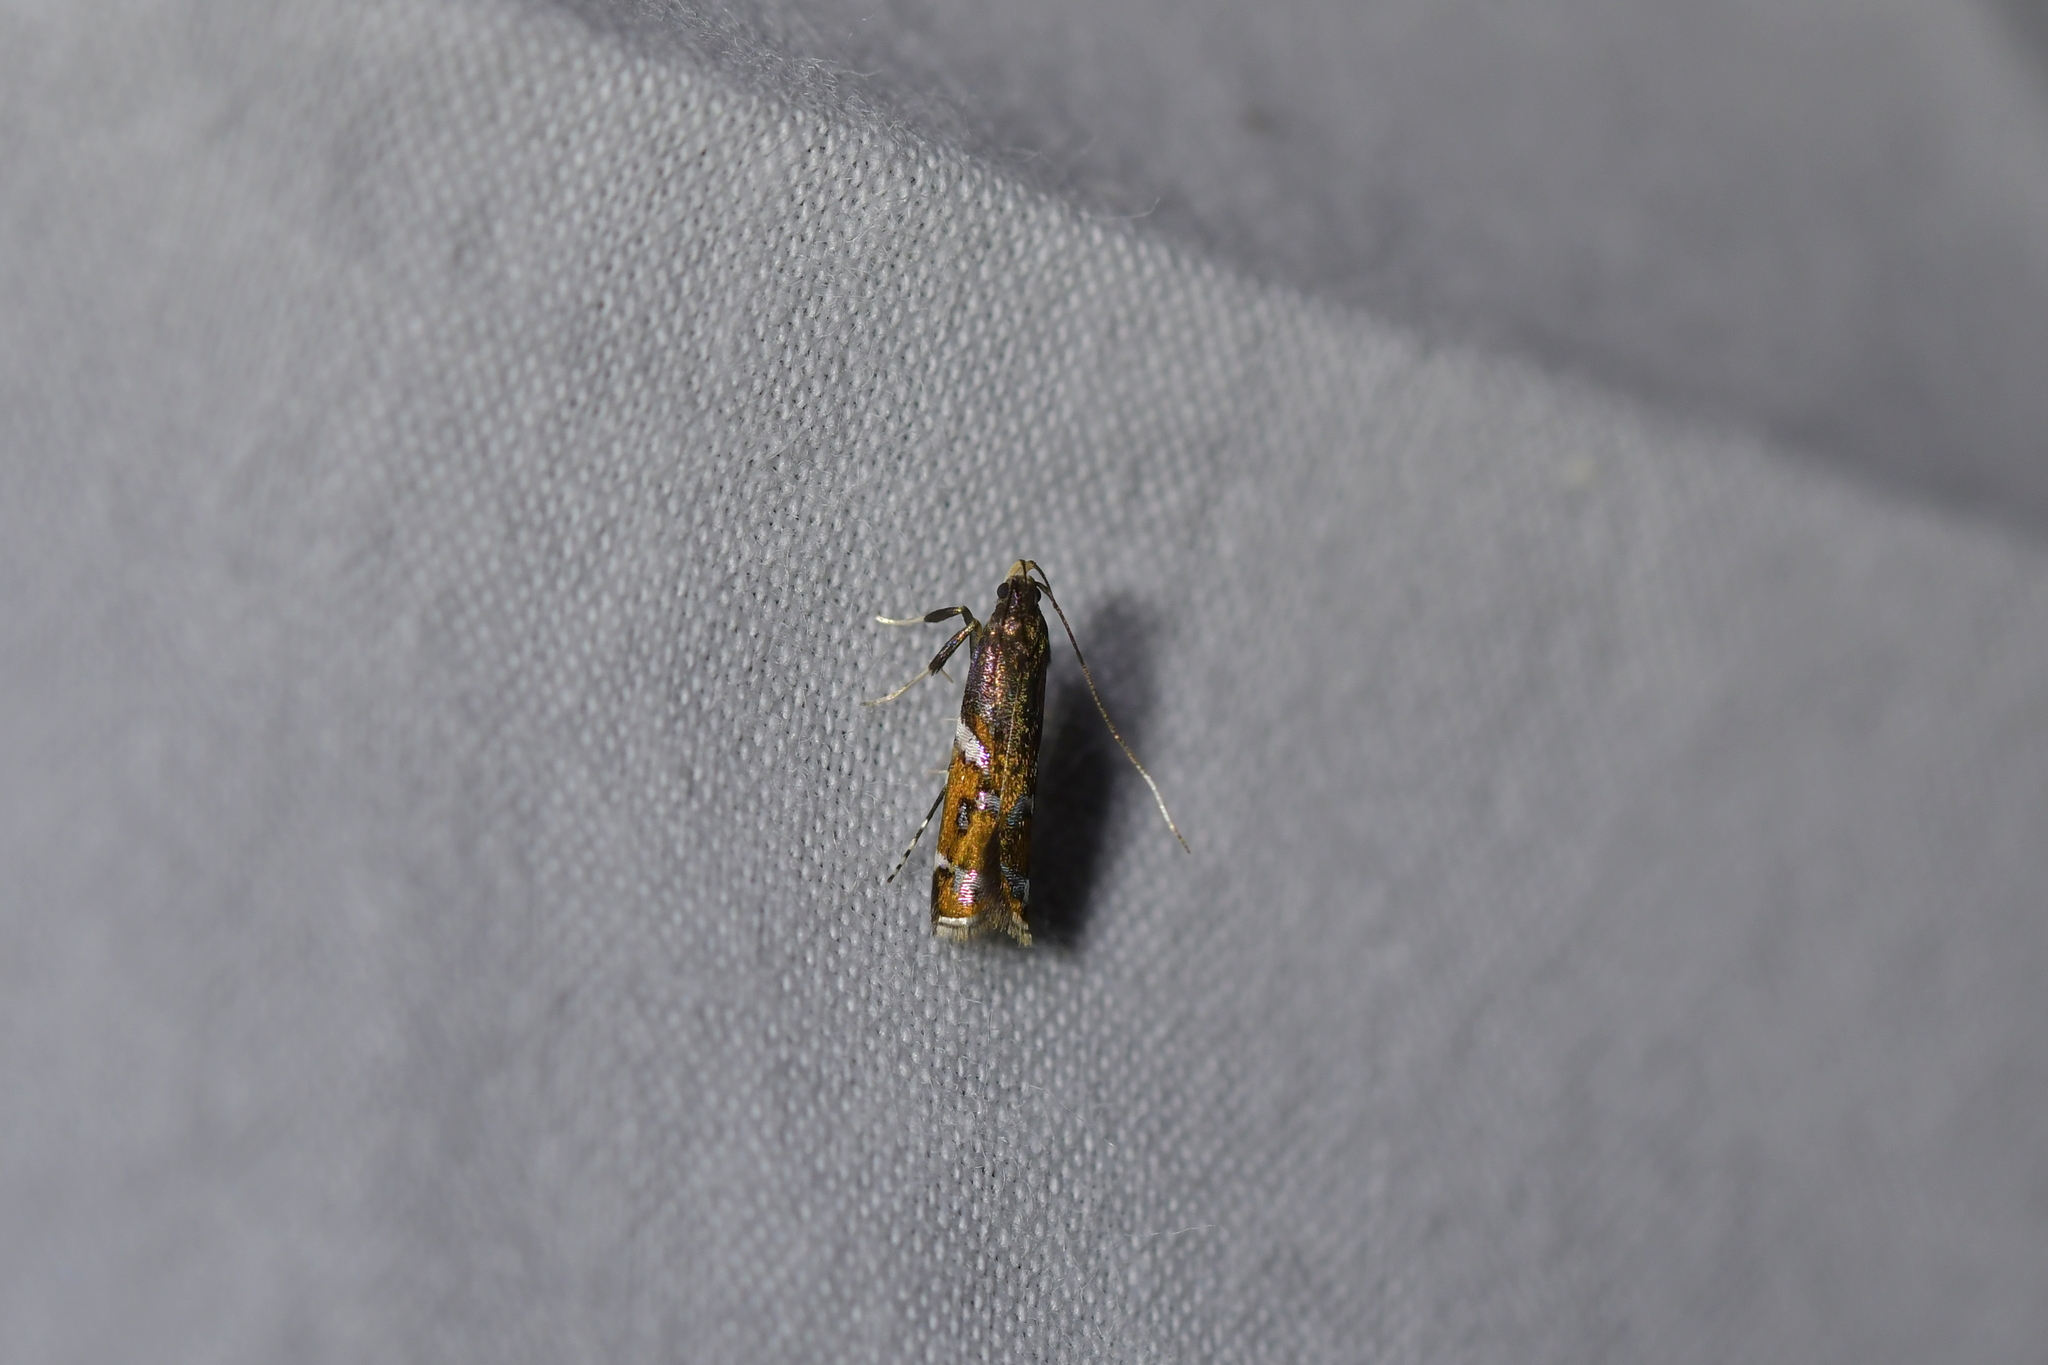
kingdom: Animalia
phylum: Arthropoda
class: Insecta
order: Lepidoptera
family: Depressariidae
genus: Compsistis
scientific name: Compsistis bifaciella
